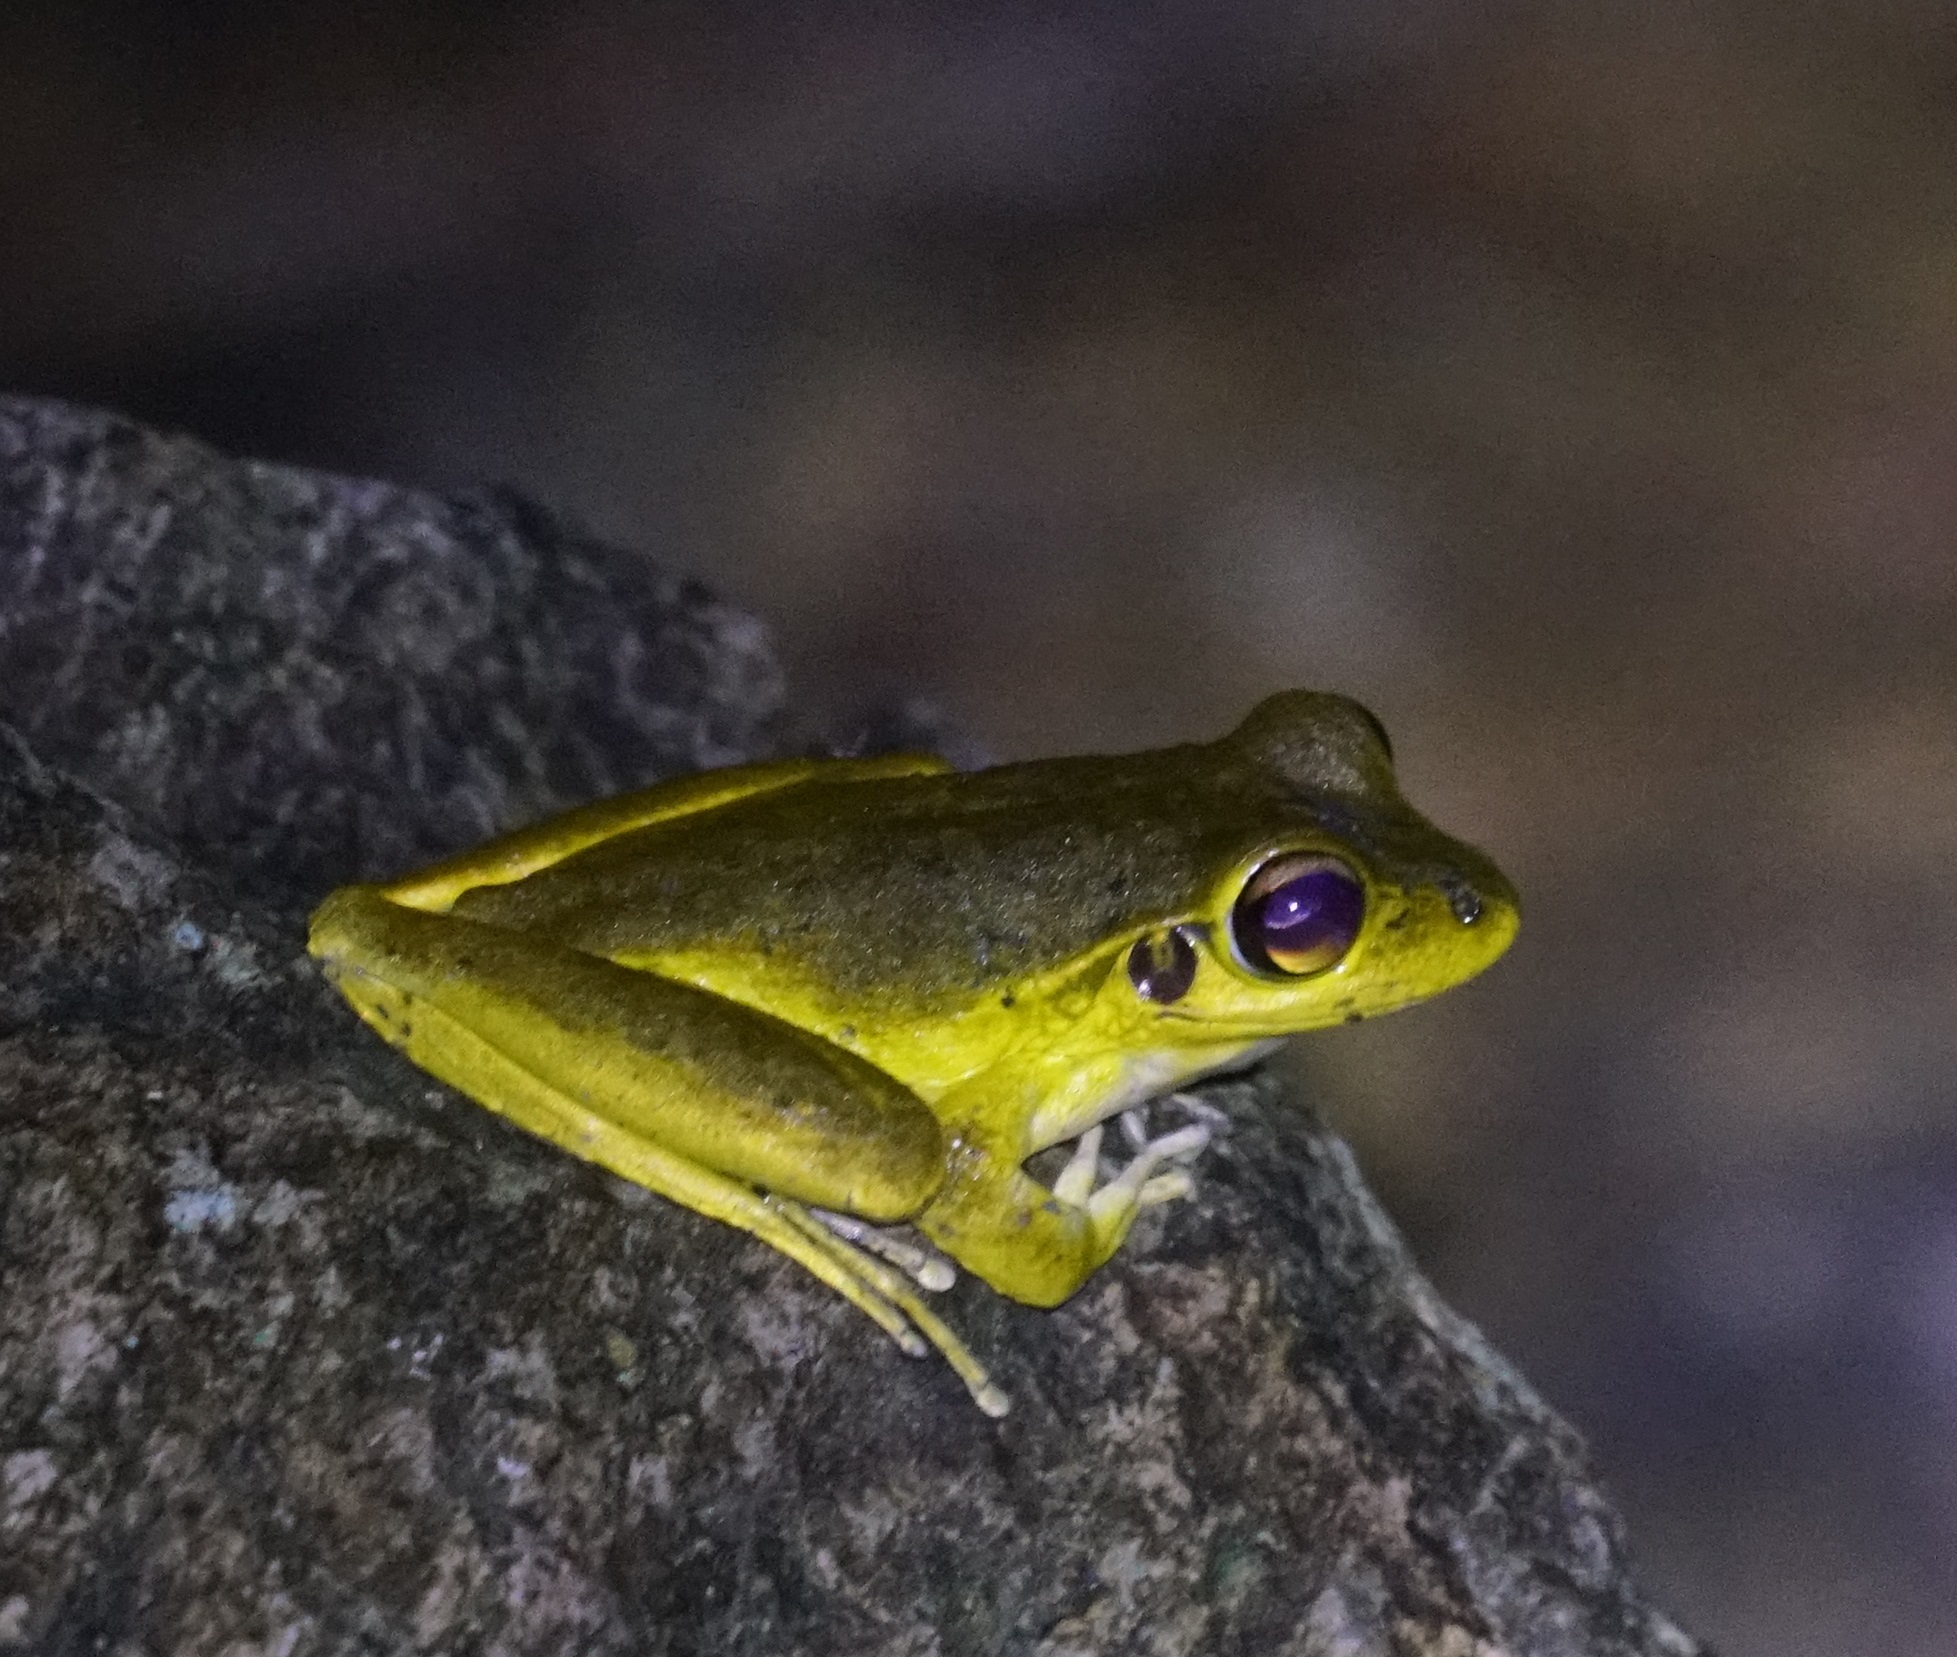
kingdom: Animalia
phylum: Chordata
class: Amphibia
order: Anura
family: Hylidae
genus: Ranoidea
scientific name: Ranoidea
